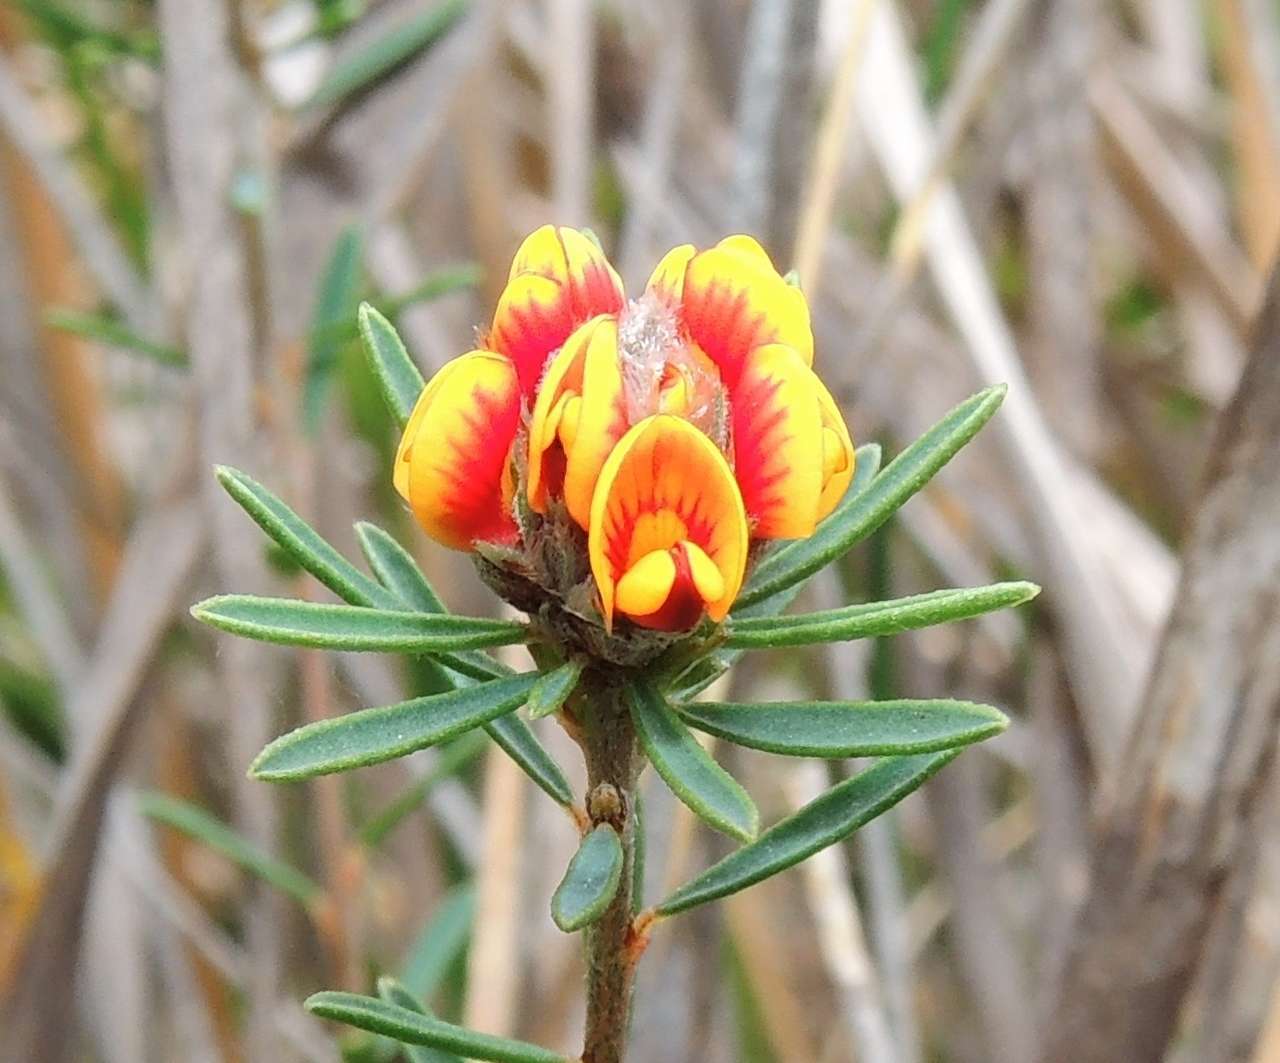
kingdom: Plantae
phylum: Tracheophyta
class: Magnoliopsida
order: Fabales
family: Fabaceae
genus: Pultenaea
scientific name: Pultenaea dentata
